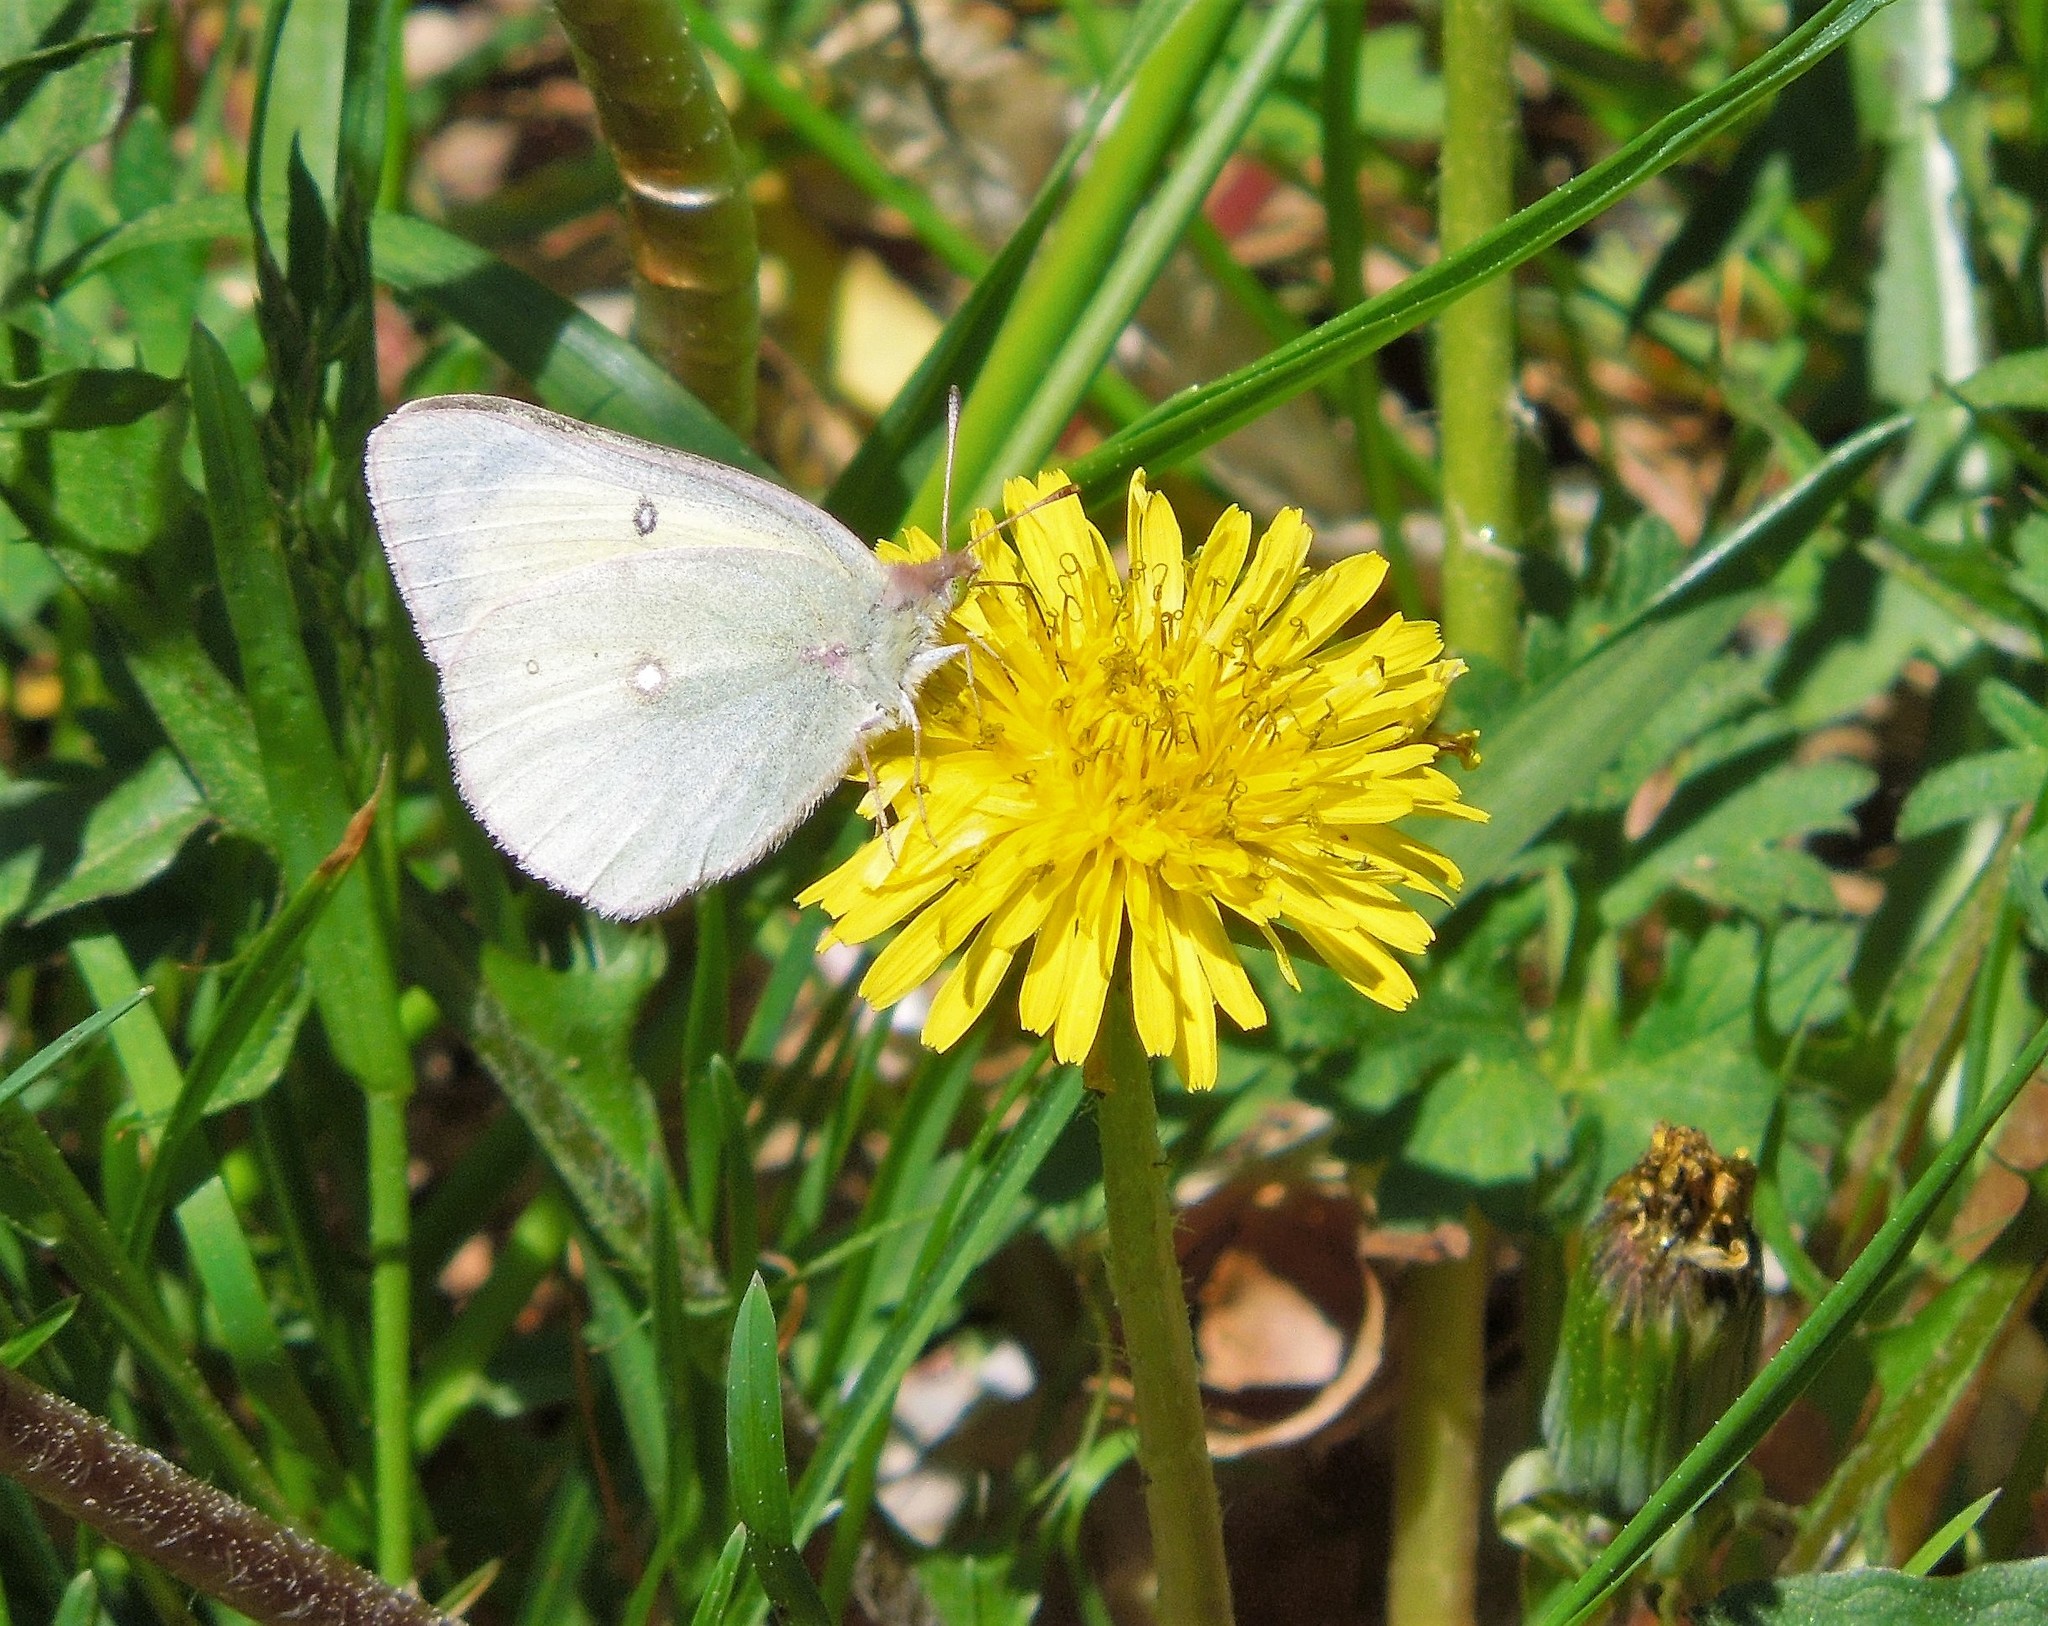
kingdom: Animalia
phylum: Arthropoda
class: Insecta
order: Lepidoptera
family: Pieridae
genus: Colias
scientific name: Colias philodice
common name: Clouded sulphur
